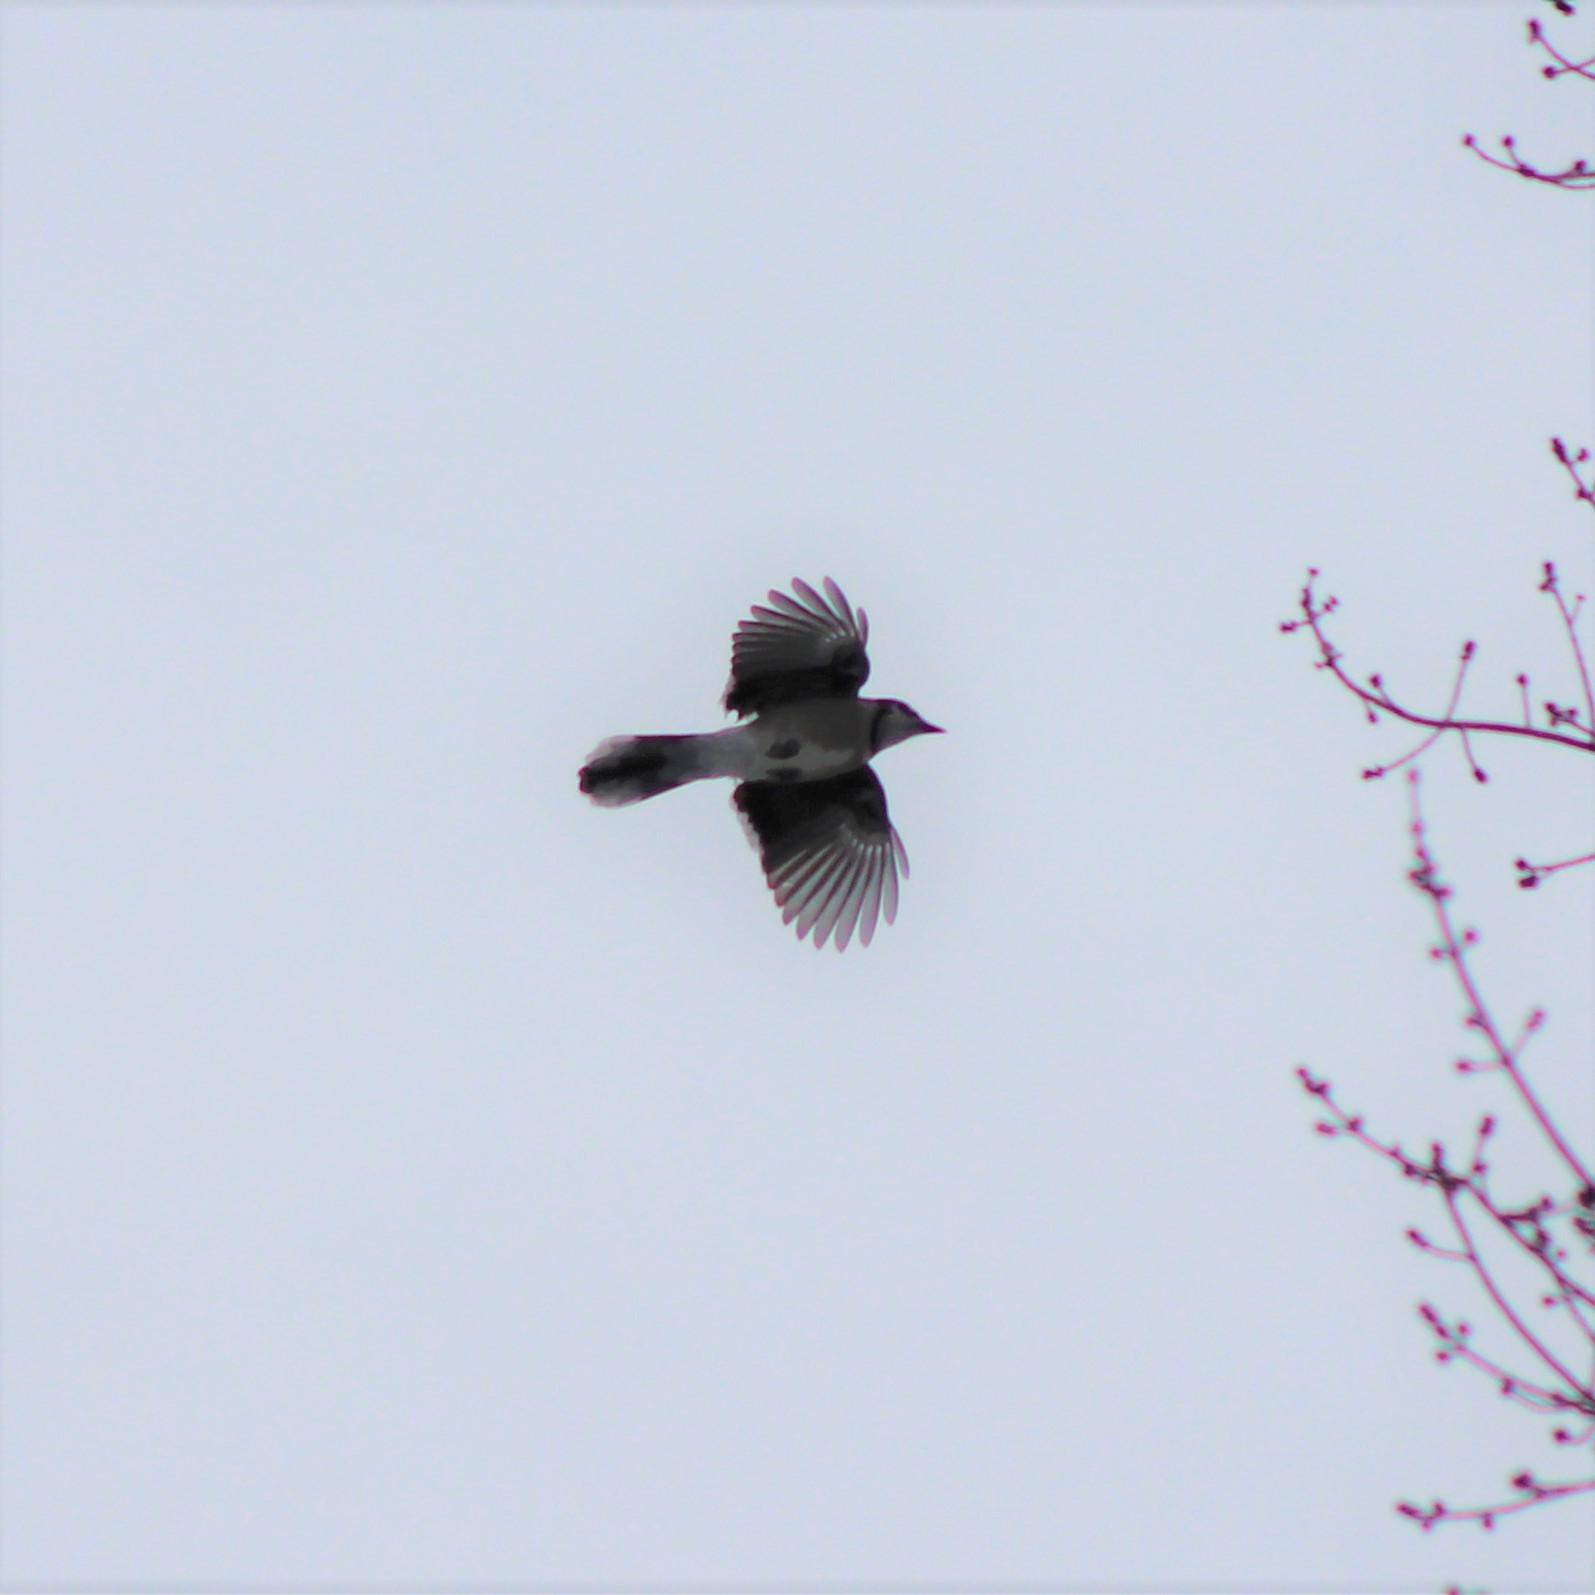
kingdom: Animalia
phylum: Chordata
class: Aves
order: Passeriformes
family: Corvidae
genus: Cyanocitta
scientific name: Cyanocitta cristata
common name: Blue jay
